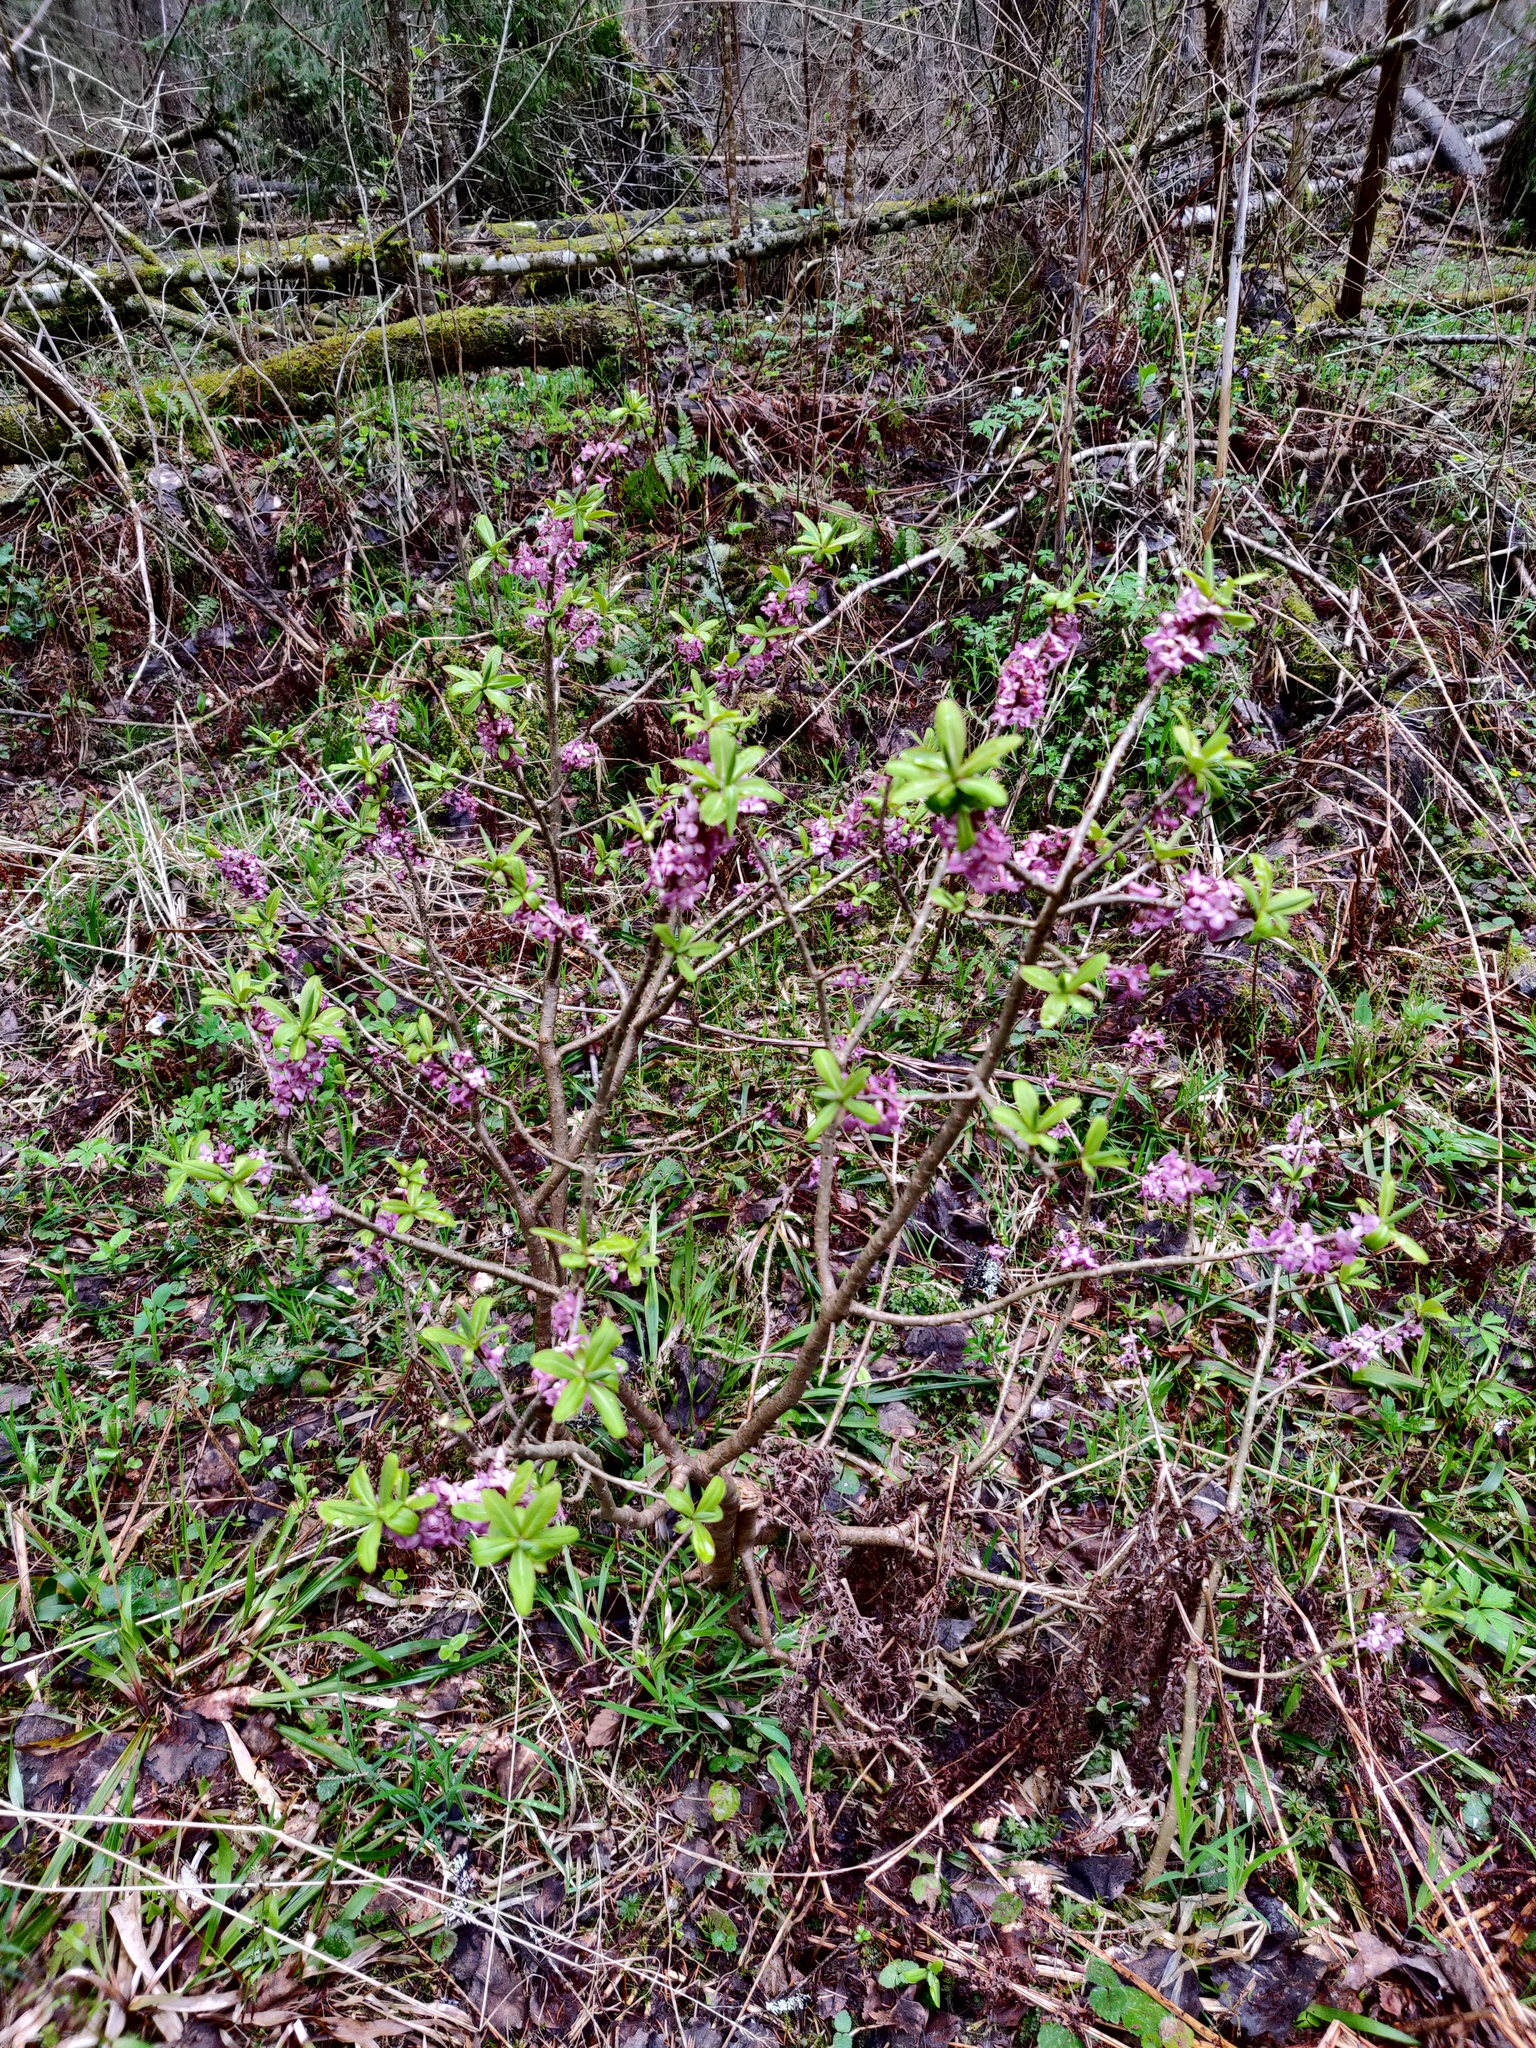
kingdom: Plantae
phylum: Tracheophyta
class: Magnoliopsida
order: Malvales
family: Thymelaeaceae
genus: Daphne
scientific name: Daphne mezereum
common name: Mezereon
